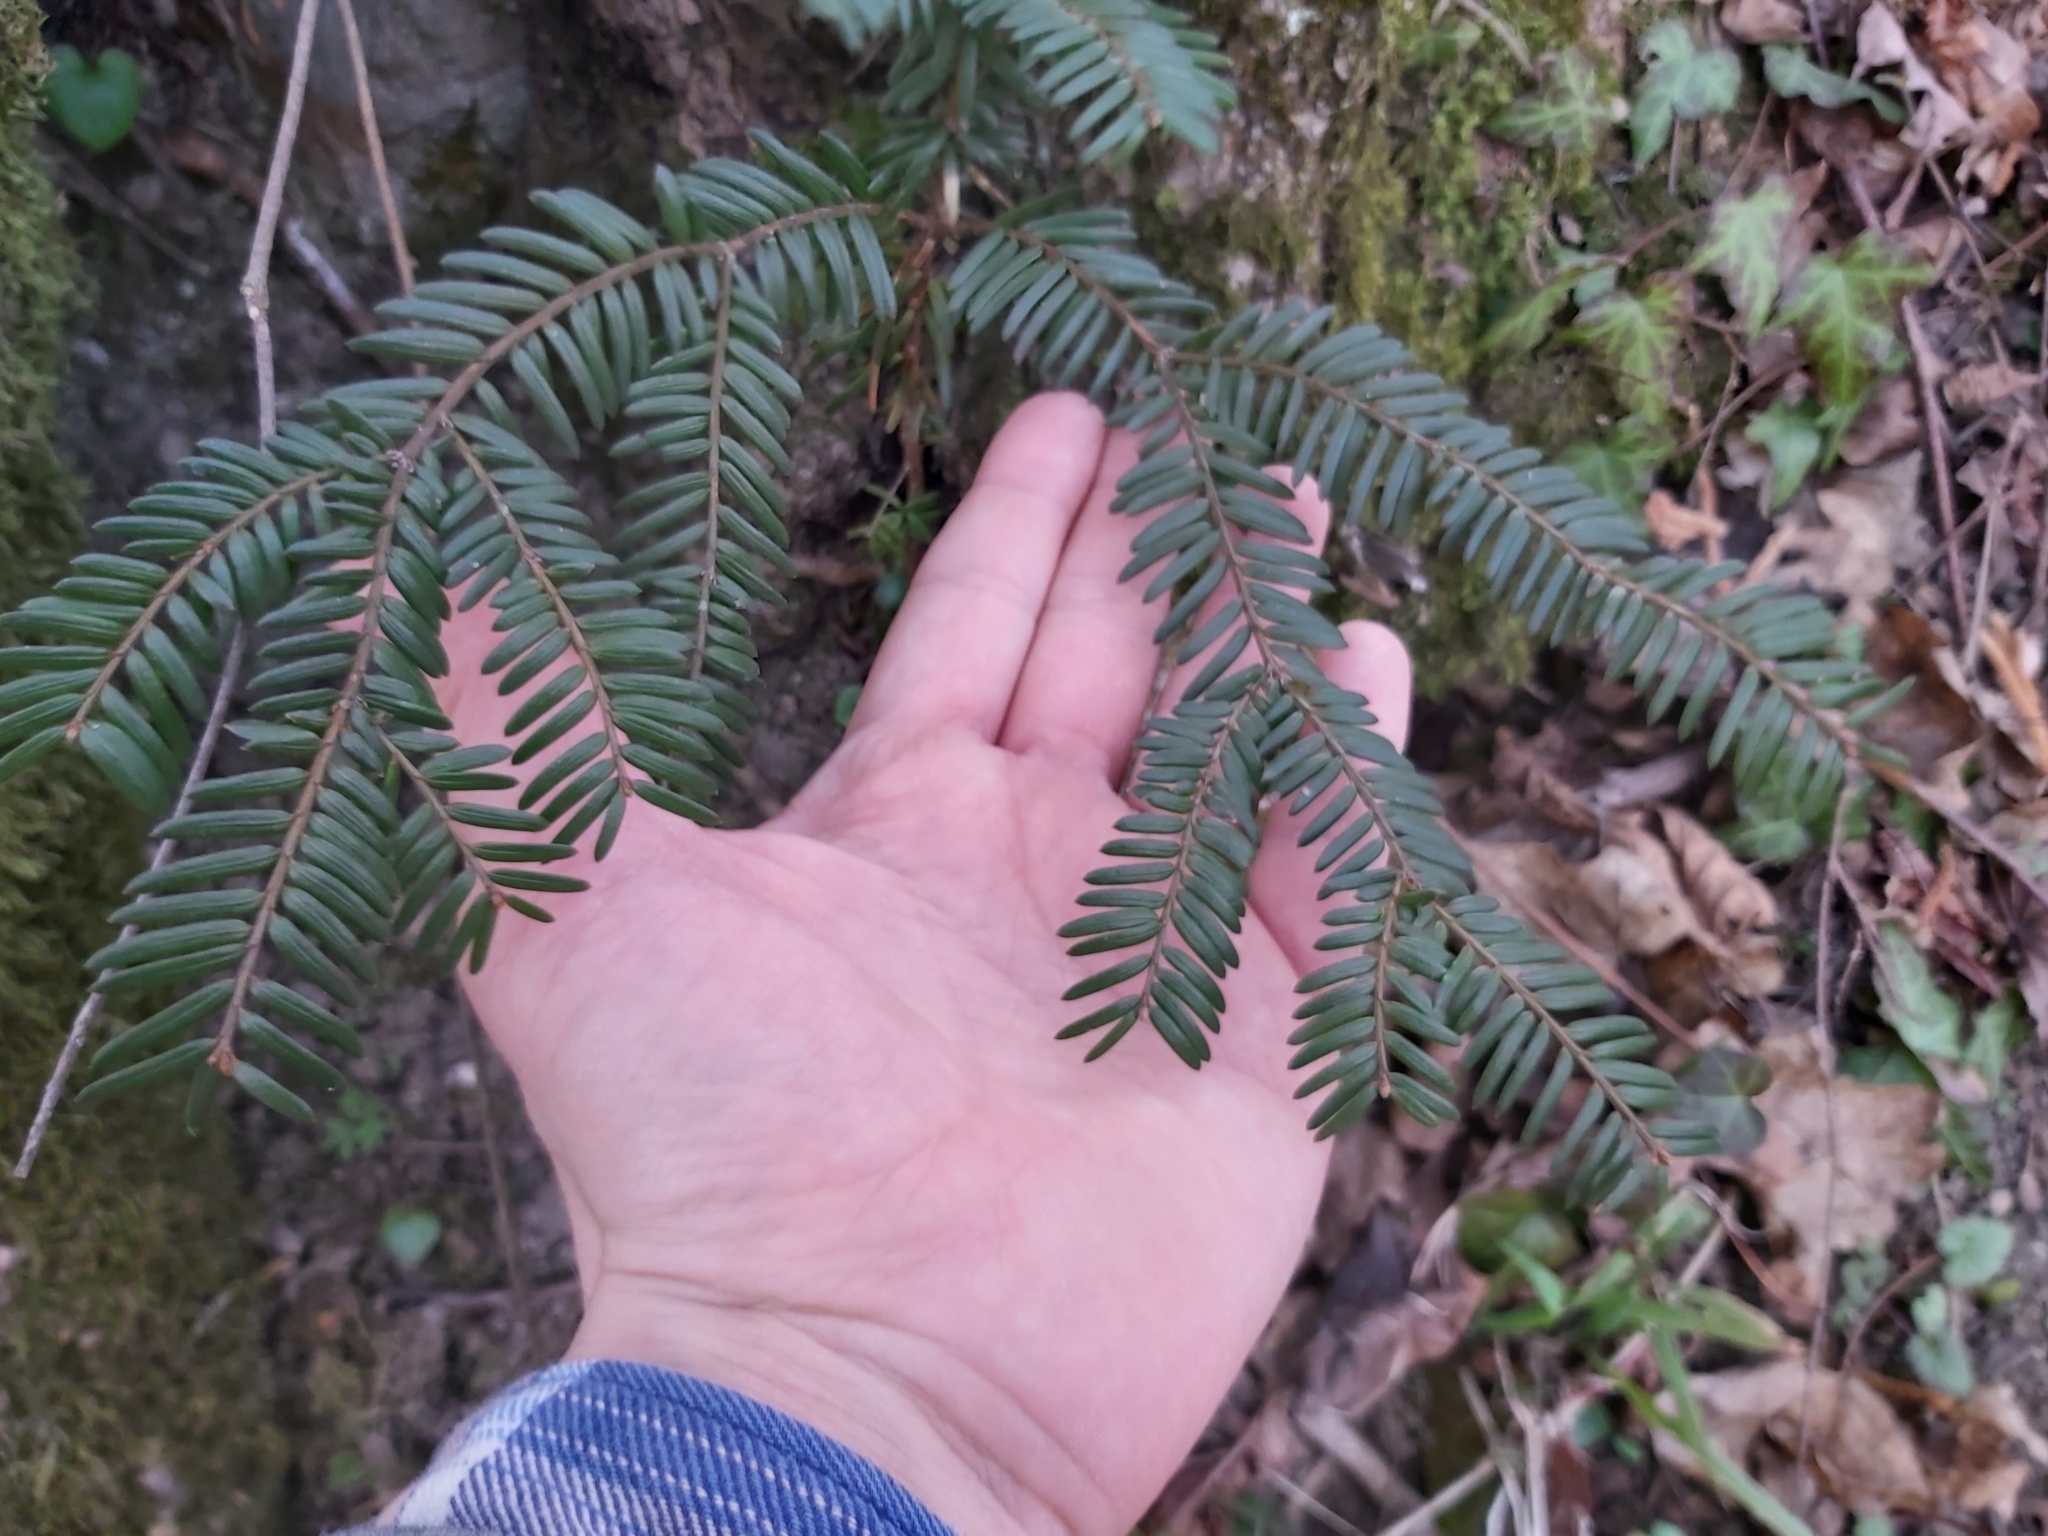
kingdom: Plantae
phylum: Tracheophyta
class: Pinopsida
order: Pinales
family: Taxaceae
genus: Taxus
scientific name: Taxus baccata
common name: Yew
